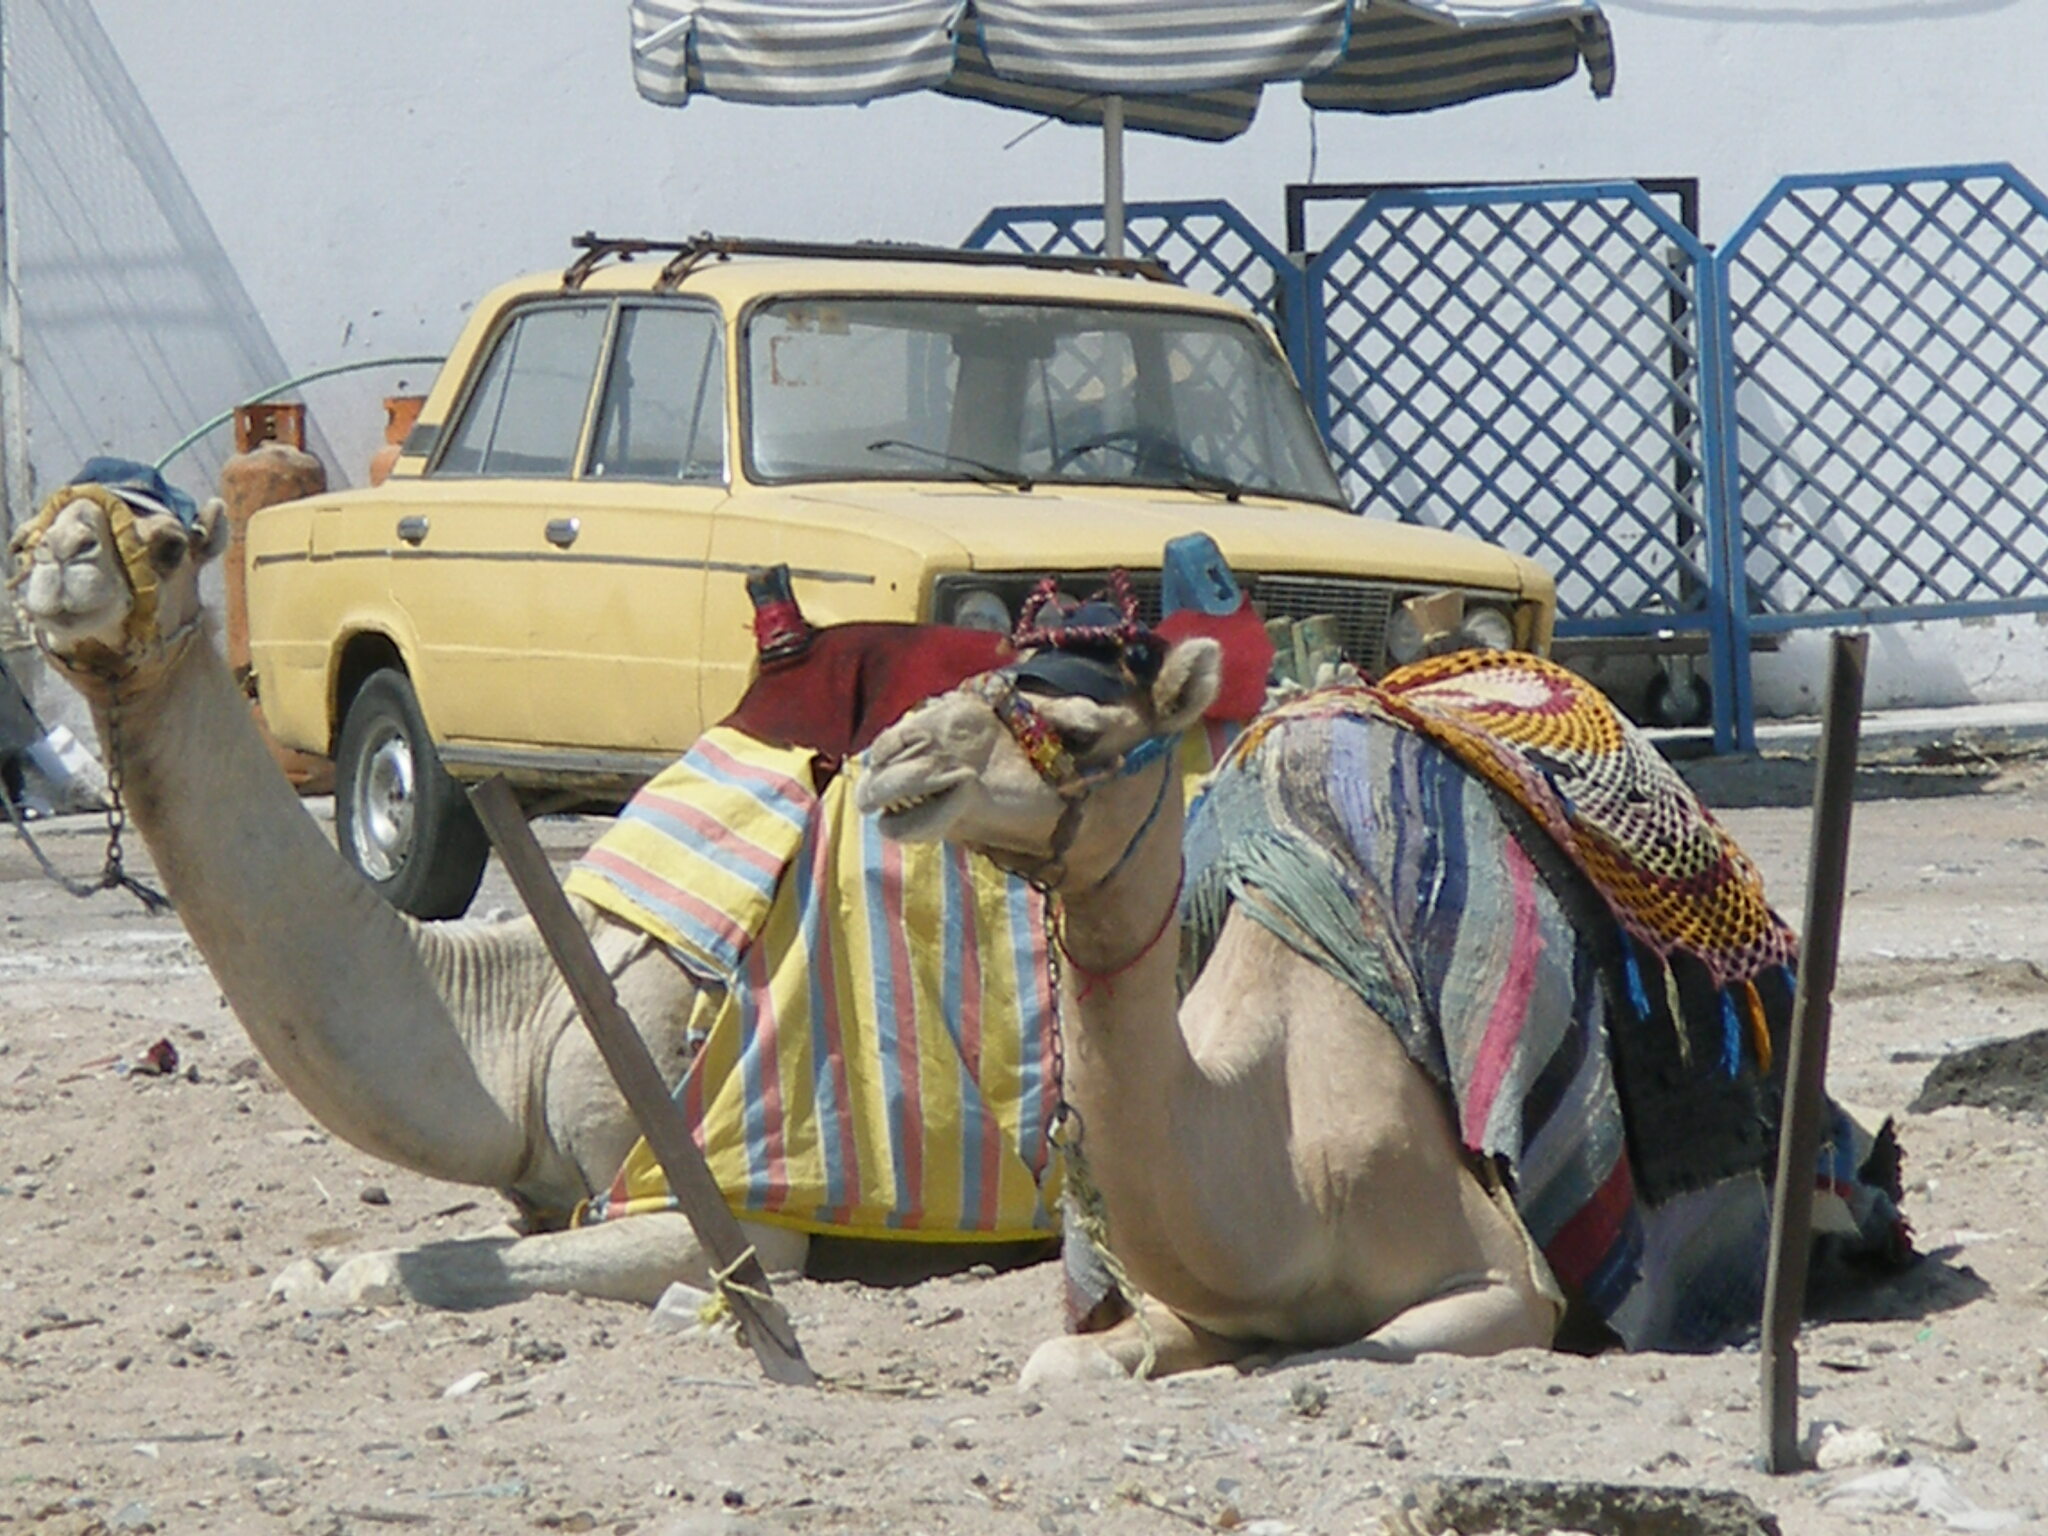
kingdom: Animalia
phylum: Chordata
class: Mammalia
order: Artiodactyla
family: Camelidae
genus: Camelus
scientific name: Camelus dromedarius
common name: One-humped camel
